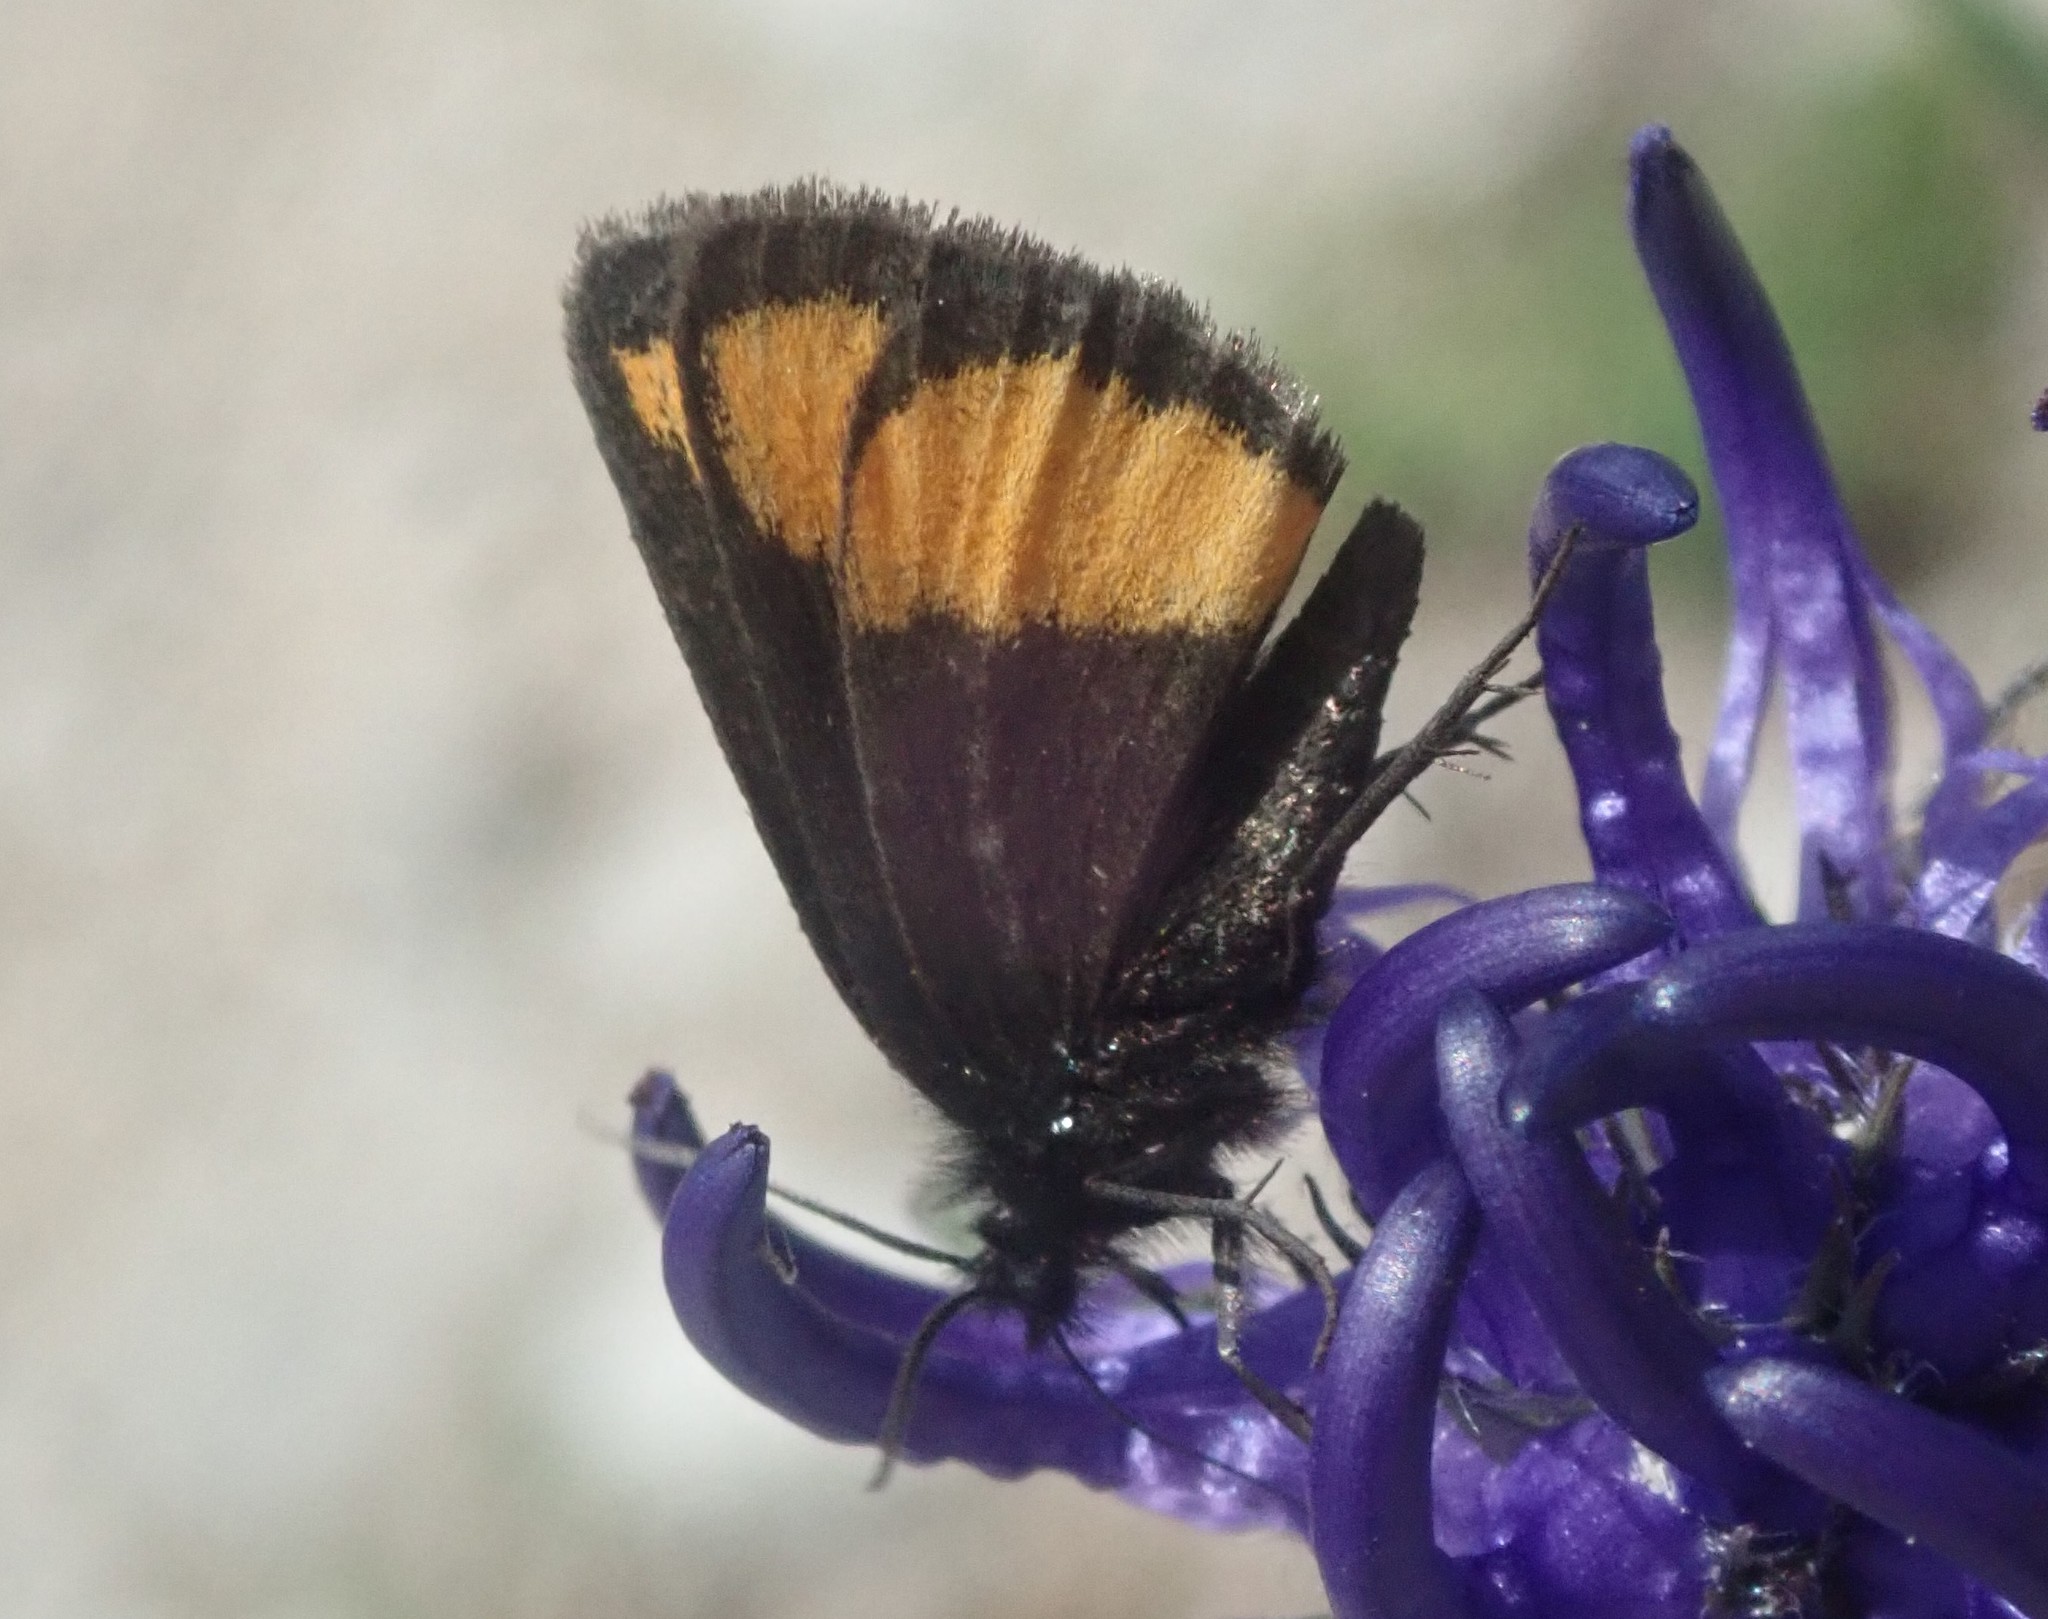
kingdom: Animalia
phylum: Arthropoda
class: Insecta
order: Lepidoptera
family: Geometridae
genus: Psodos
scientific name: Psodos quadrifaria
